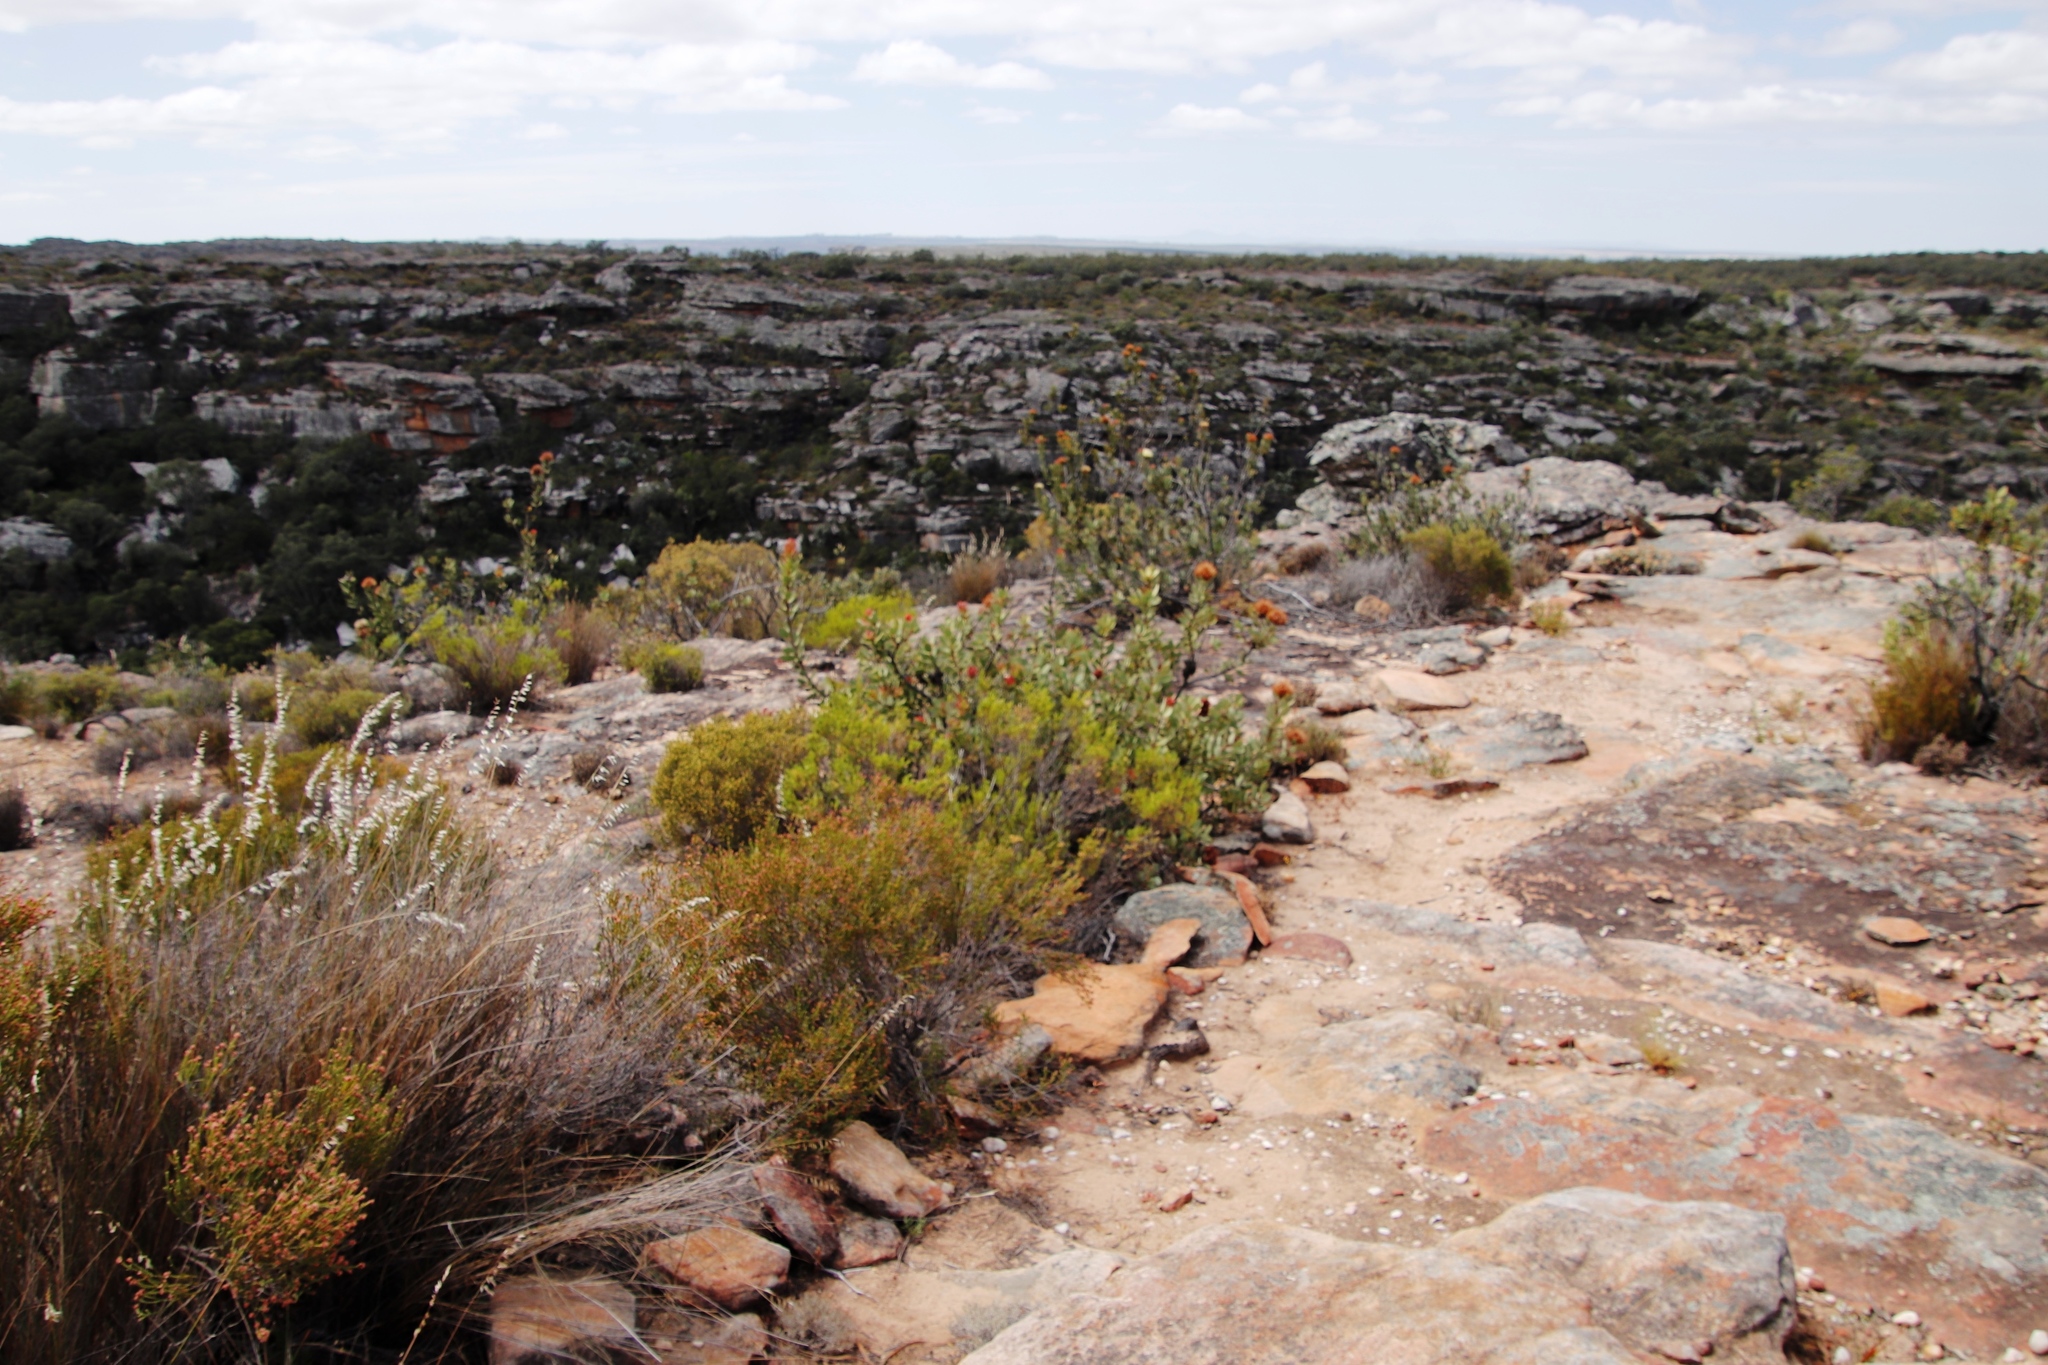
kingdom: Plantae
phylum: Tracheophyta
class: Magnoliopsida
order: Proteales
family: Proteaceae
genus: Protea
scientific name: Protea glabra
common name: Chestnut sugarbush
